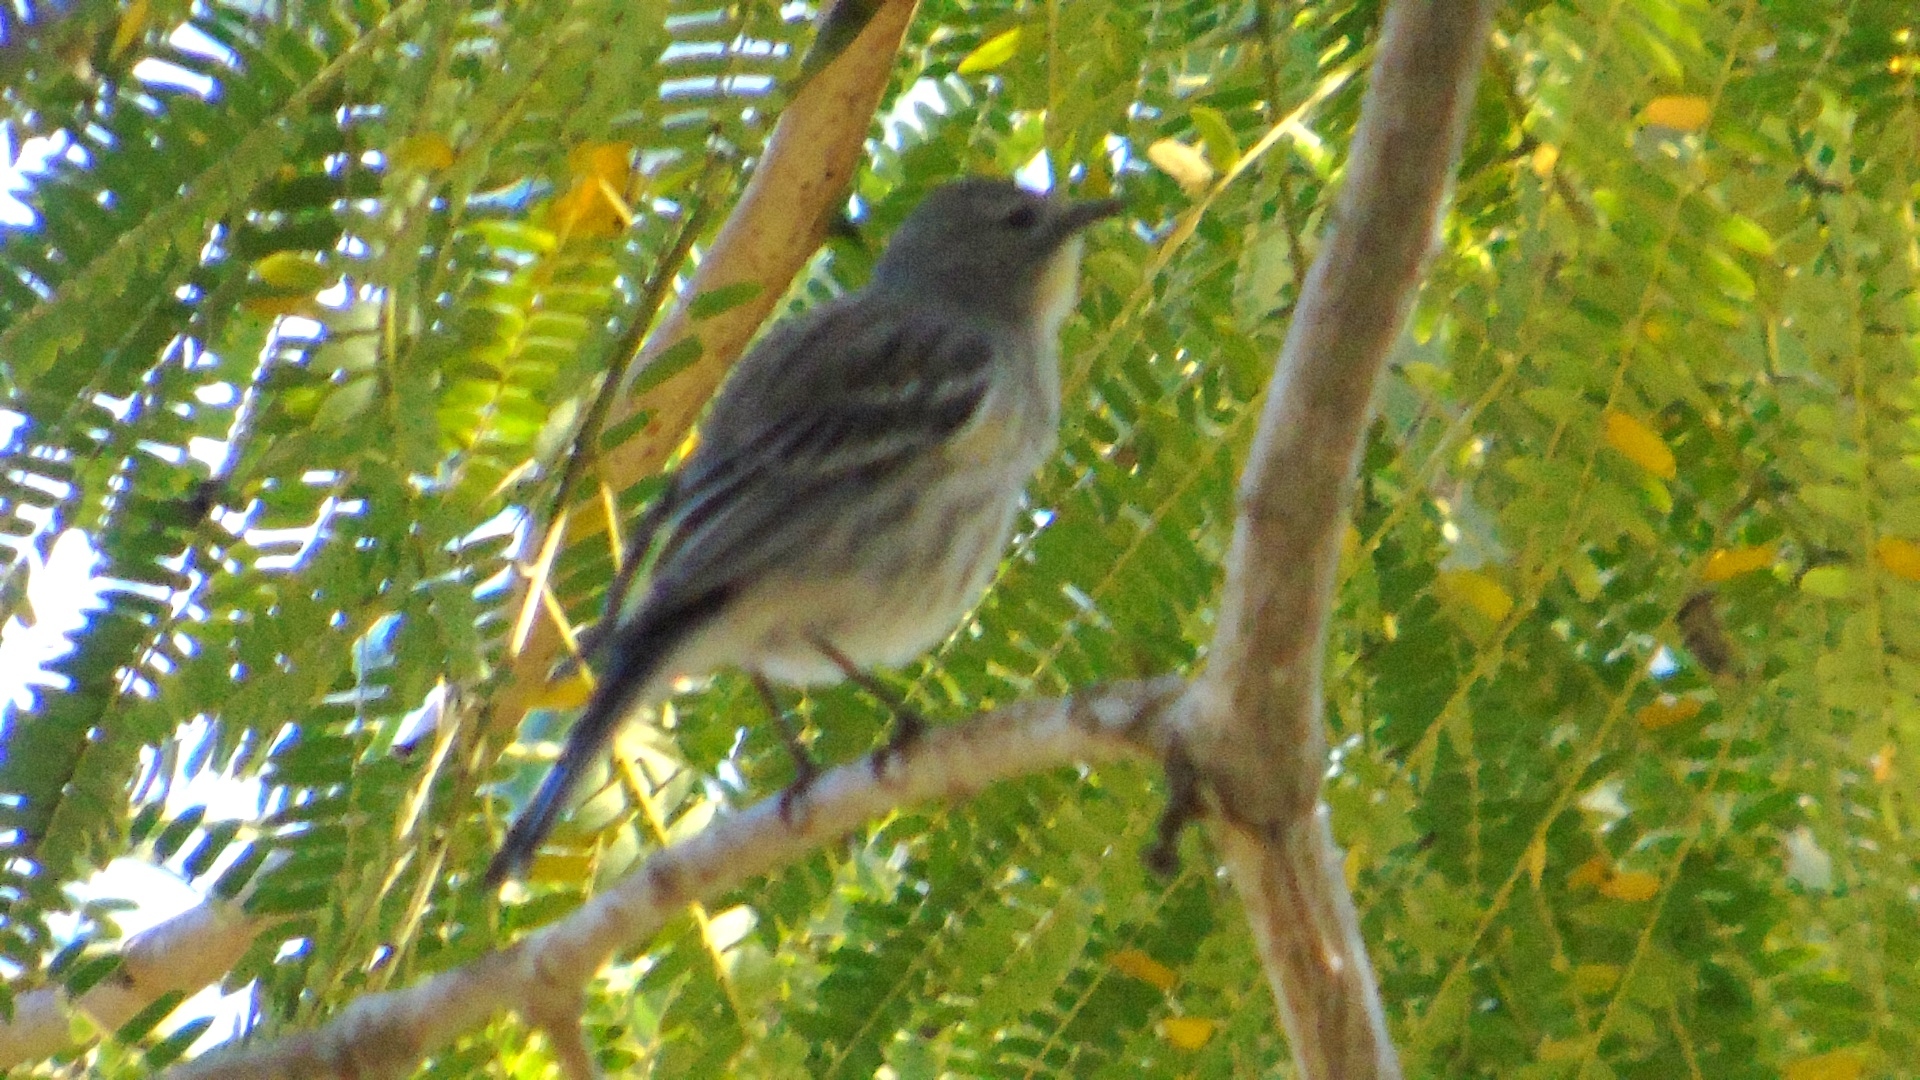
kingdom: Animalia
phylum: Chordata
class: Aves
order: Passeriformes
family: Parulidae
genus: Setophaga
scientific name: Setophaga auduboni
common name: Audubon's warbler
